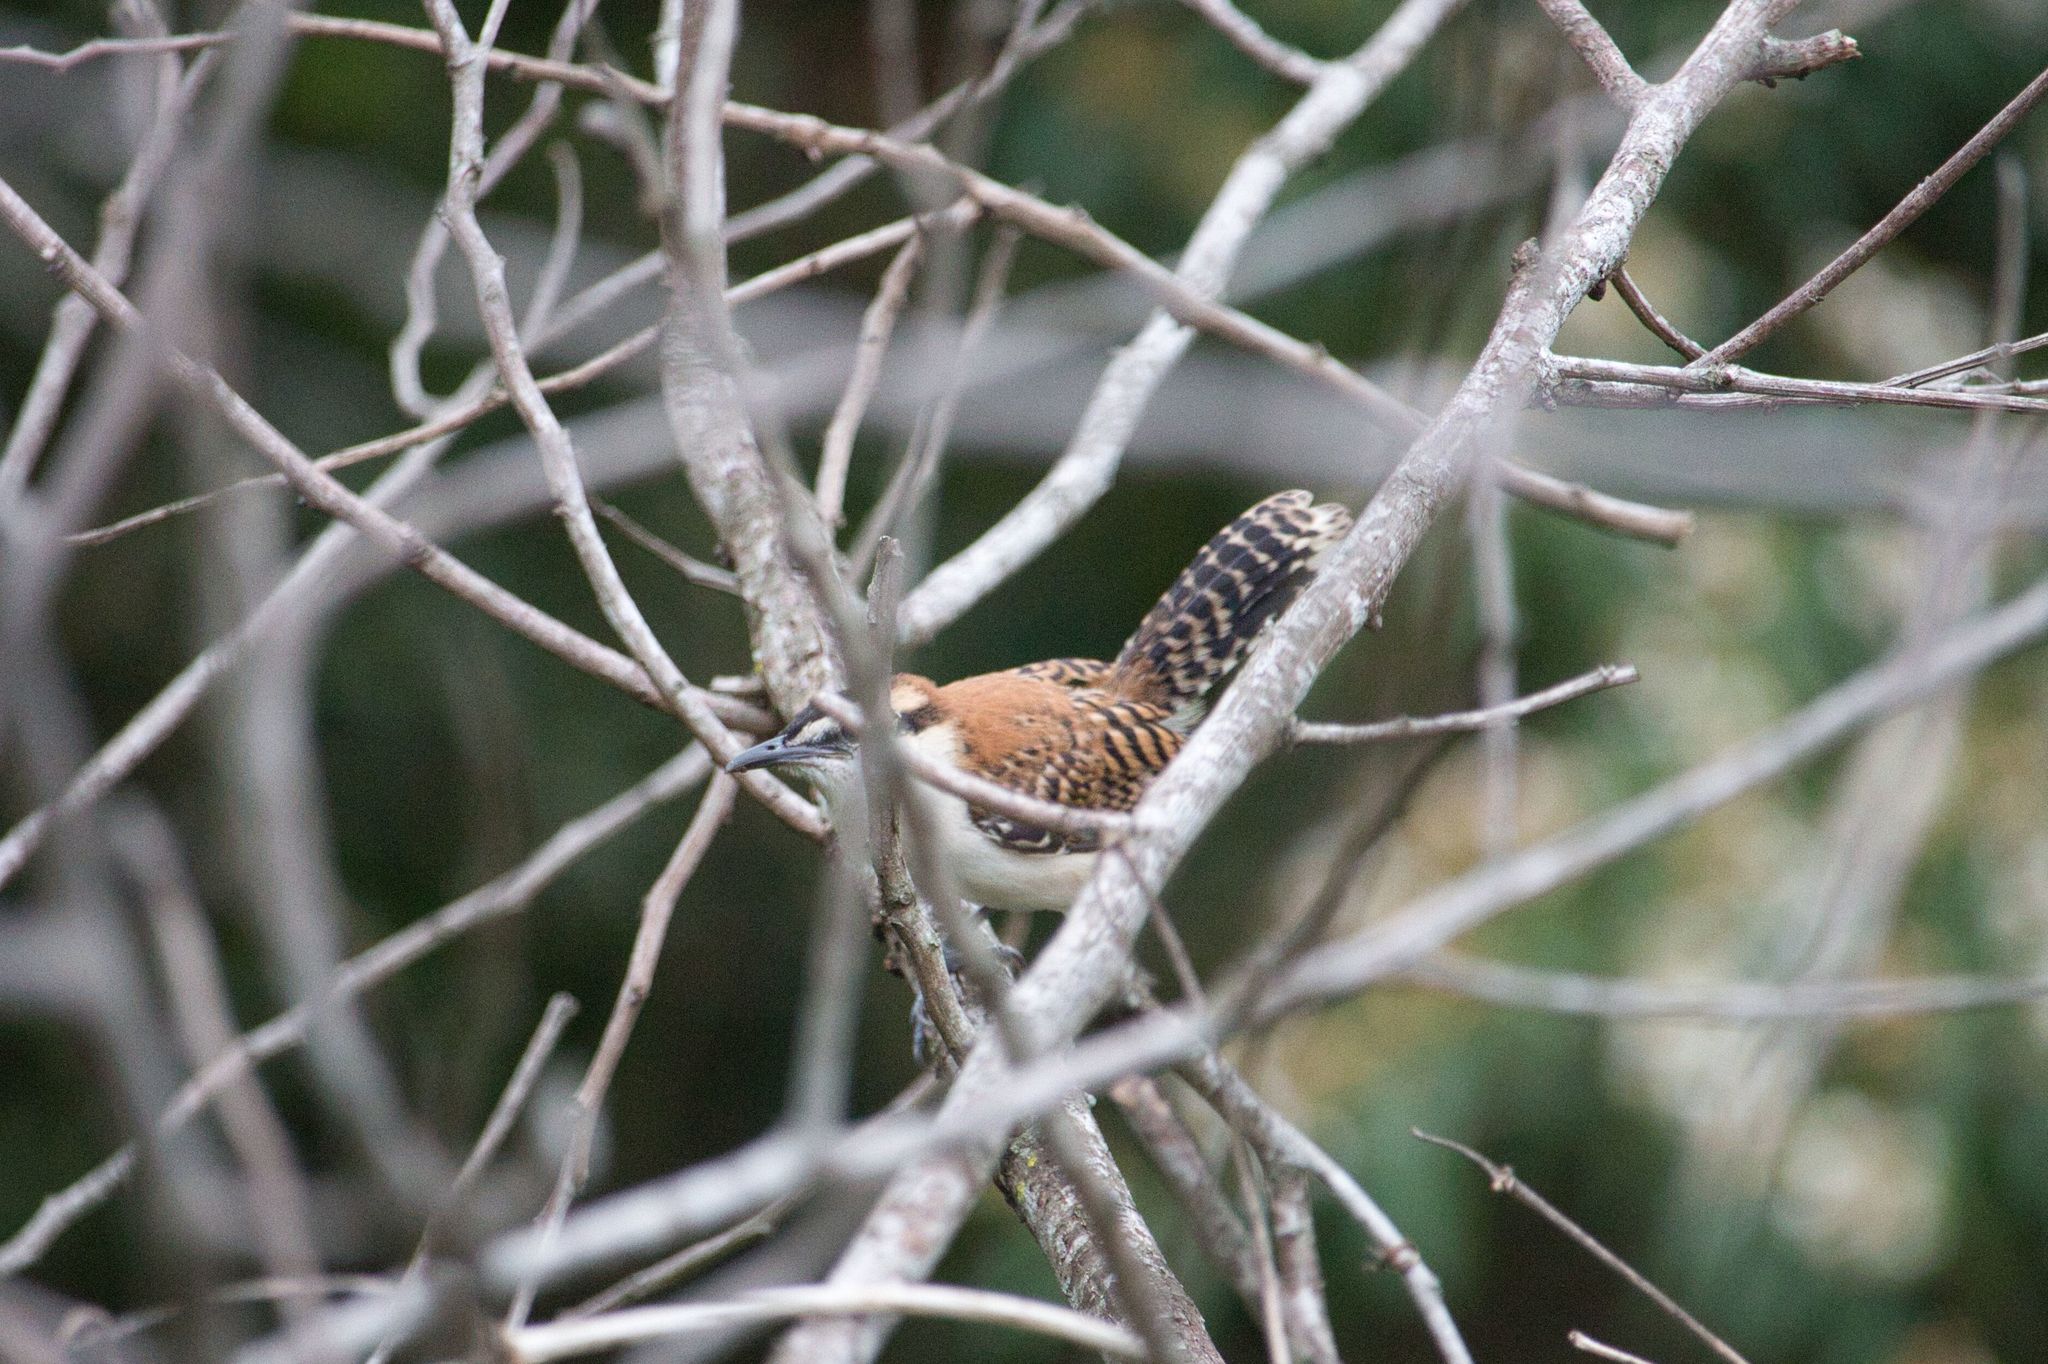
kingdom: Animalia
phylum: Chordata
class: Aves
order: Passeriformes
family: Troglodytidae
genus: Campylorhynchus
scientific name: Campylorhynchus rufinucha
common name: Rufous-naped wren
